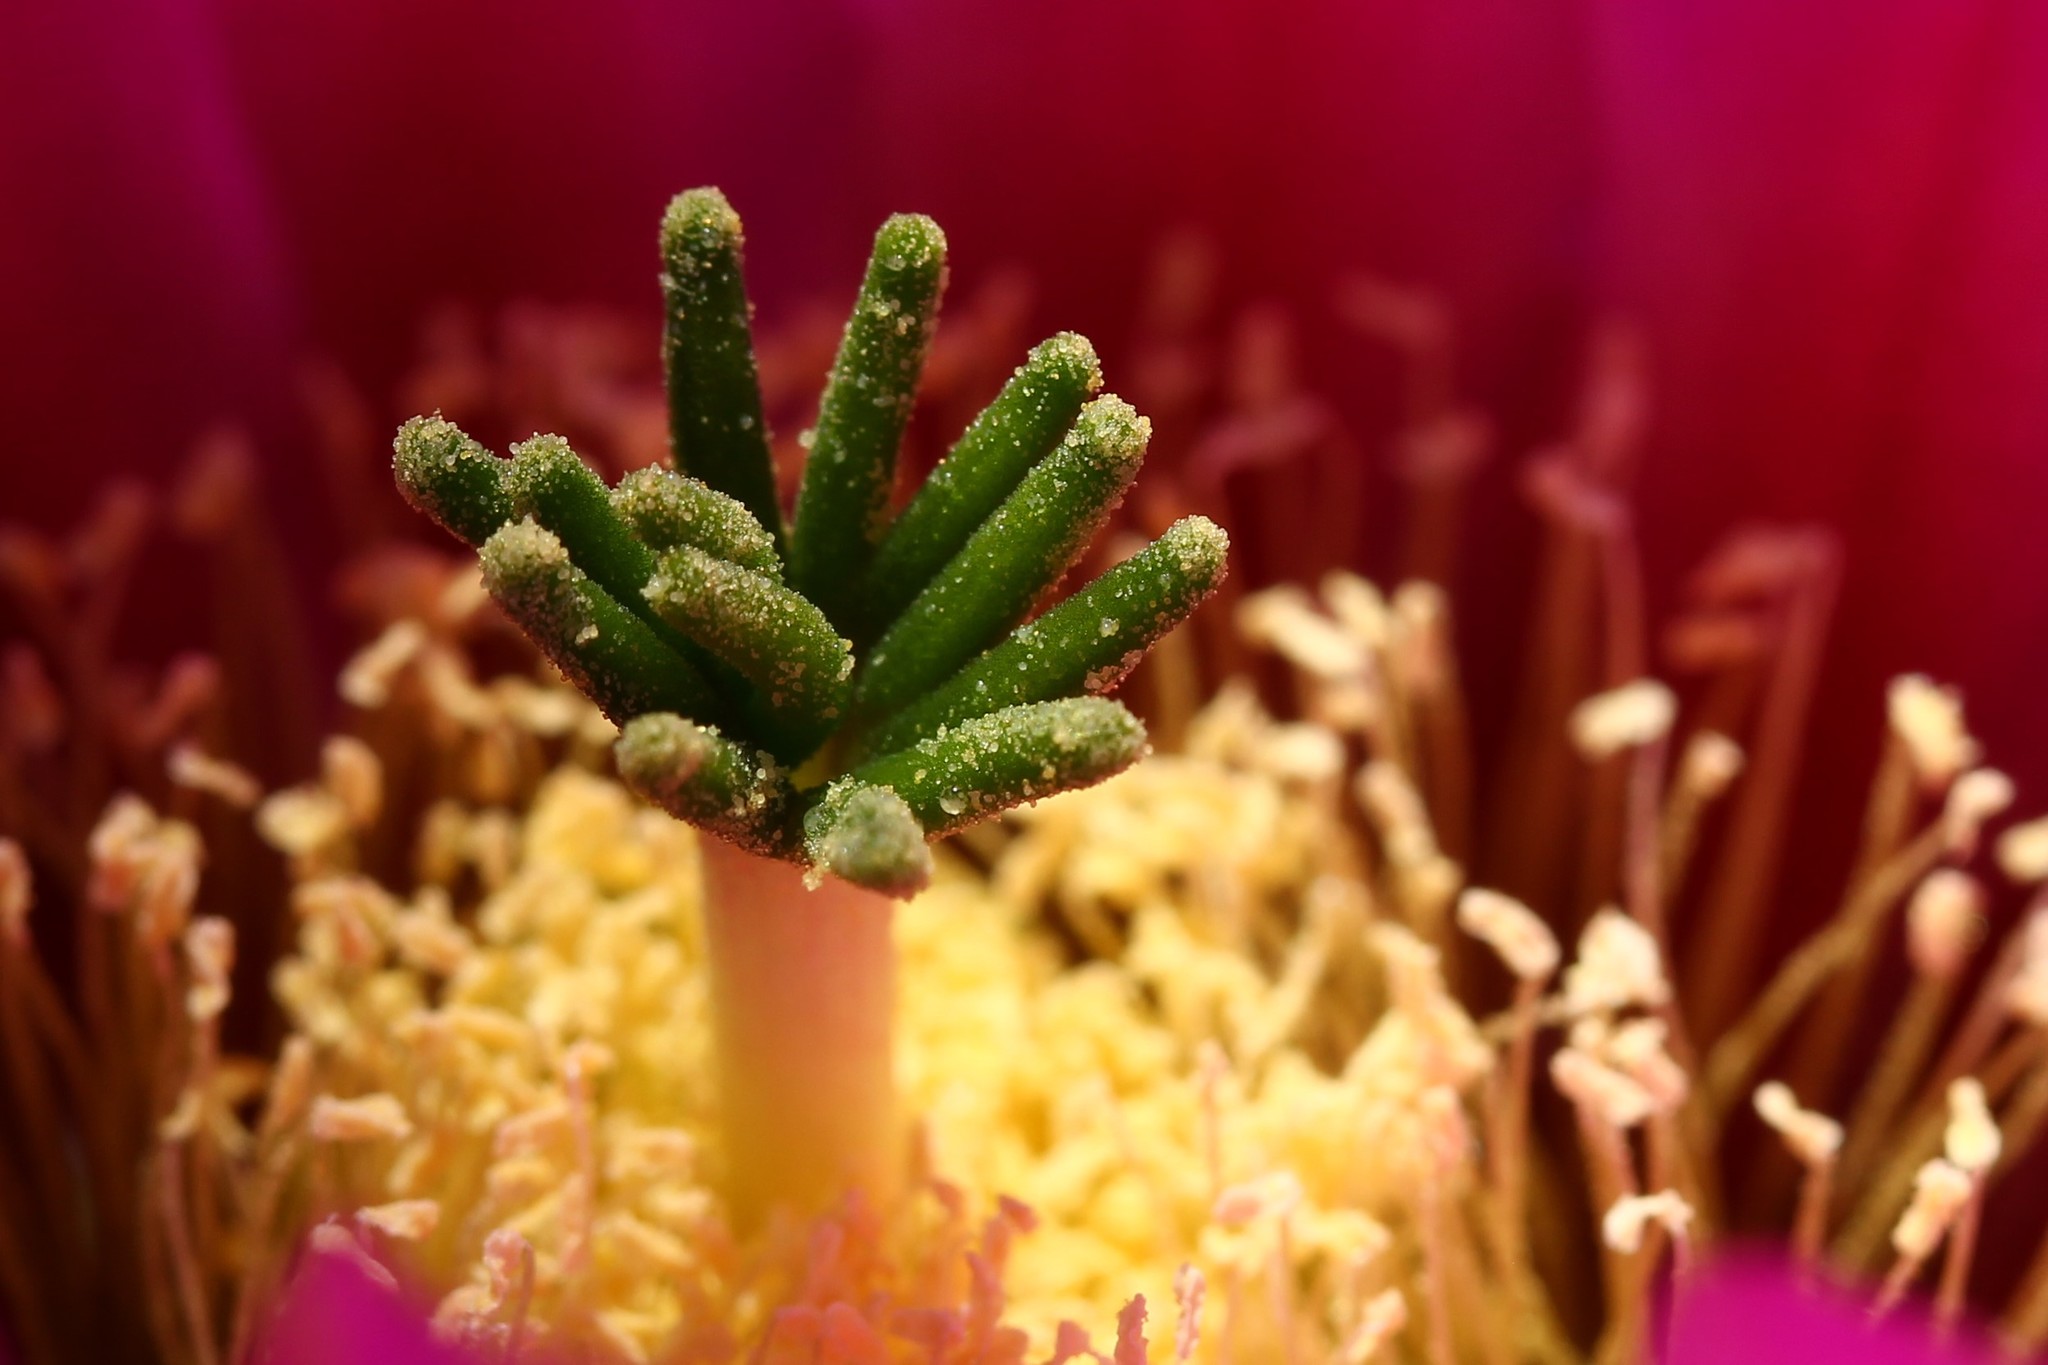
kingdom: Plantae
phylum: Tracheophyta
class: Magnoliopsida
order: Caryophyllales
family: Cactaceae
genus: Echinocereus
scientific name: Echinocereus fasciculatus
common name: Bundle hedgehog
